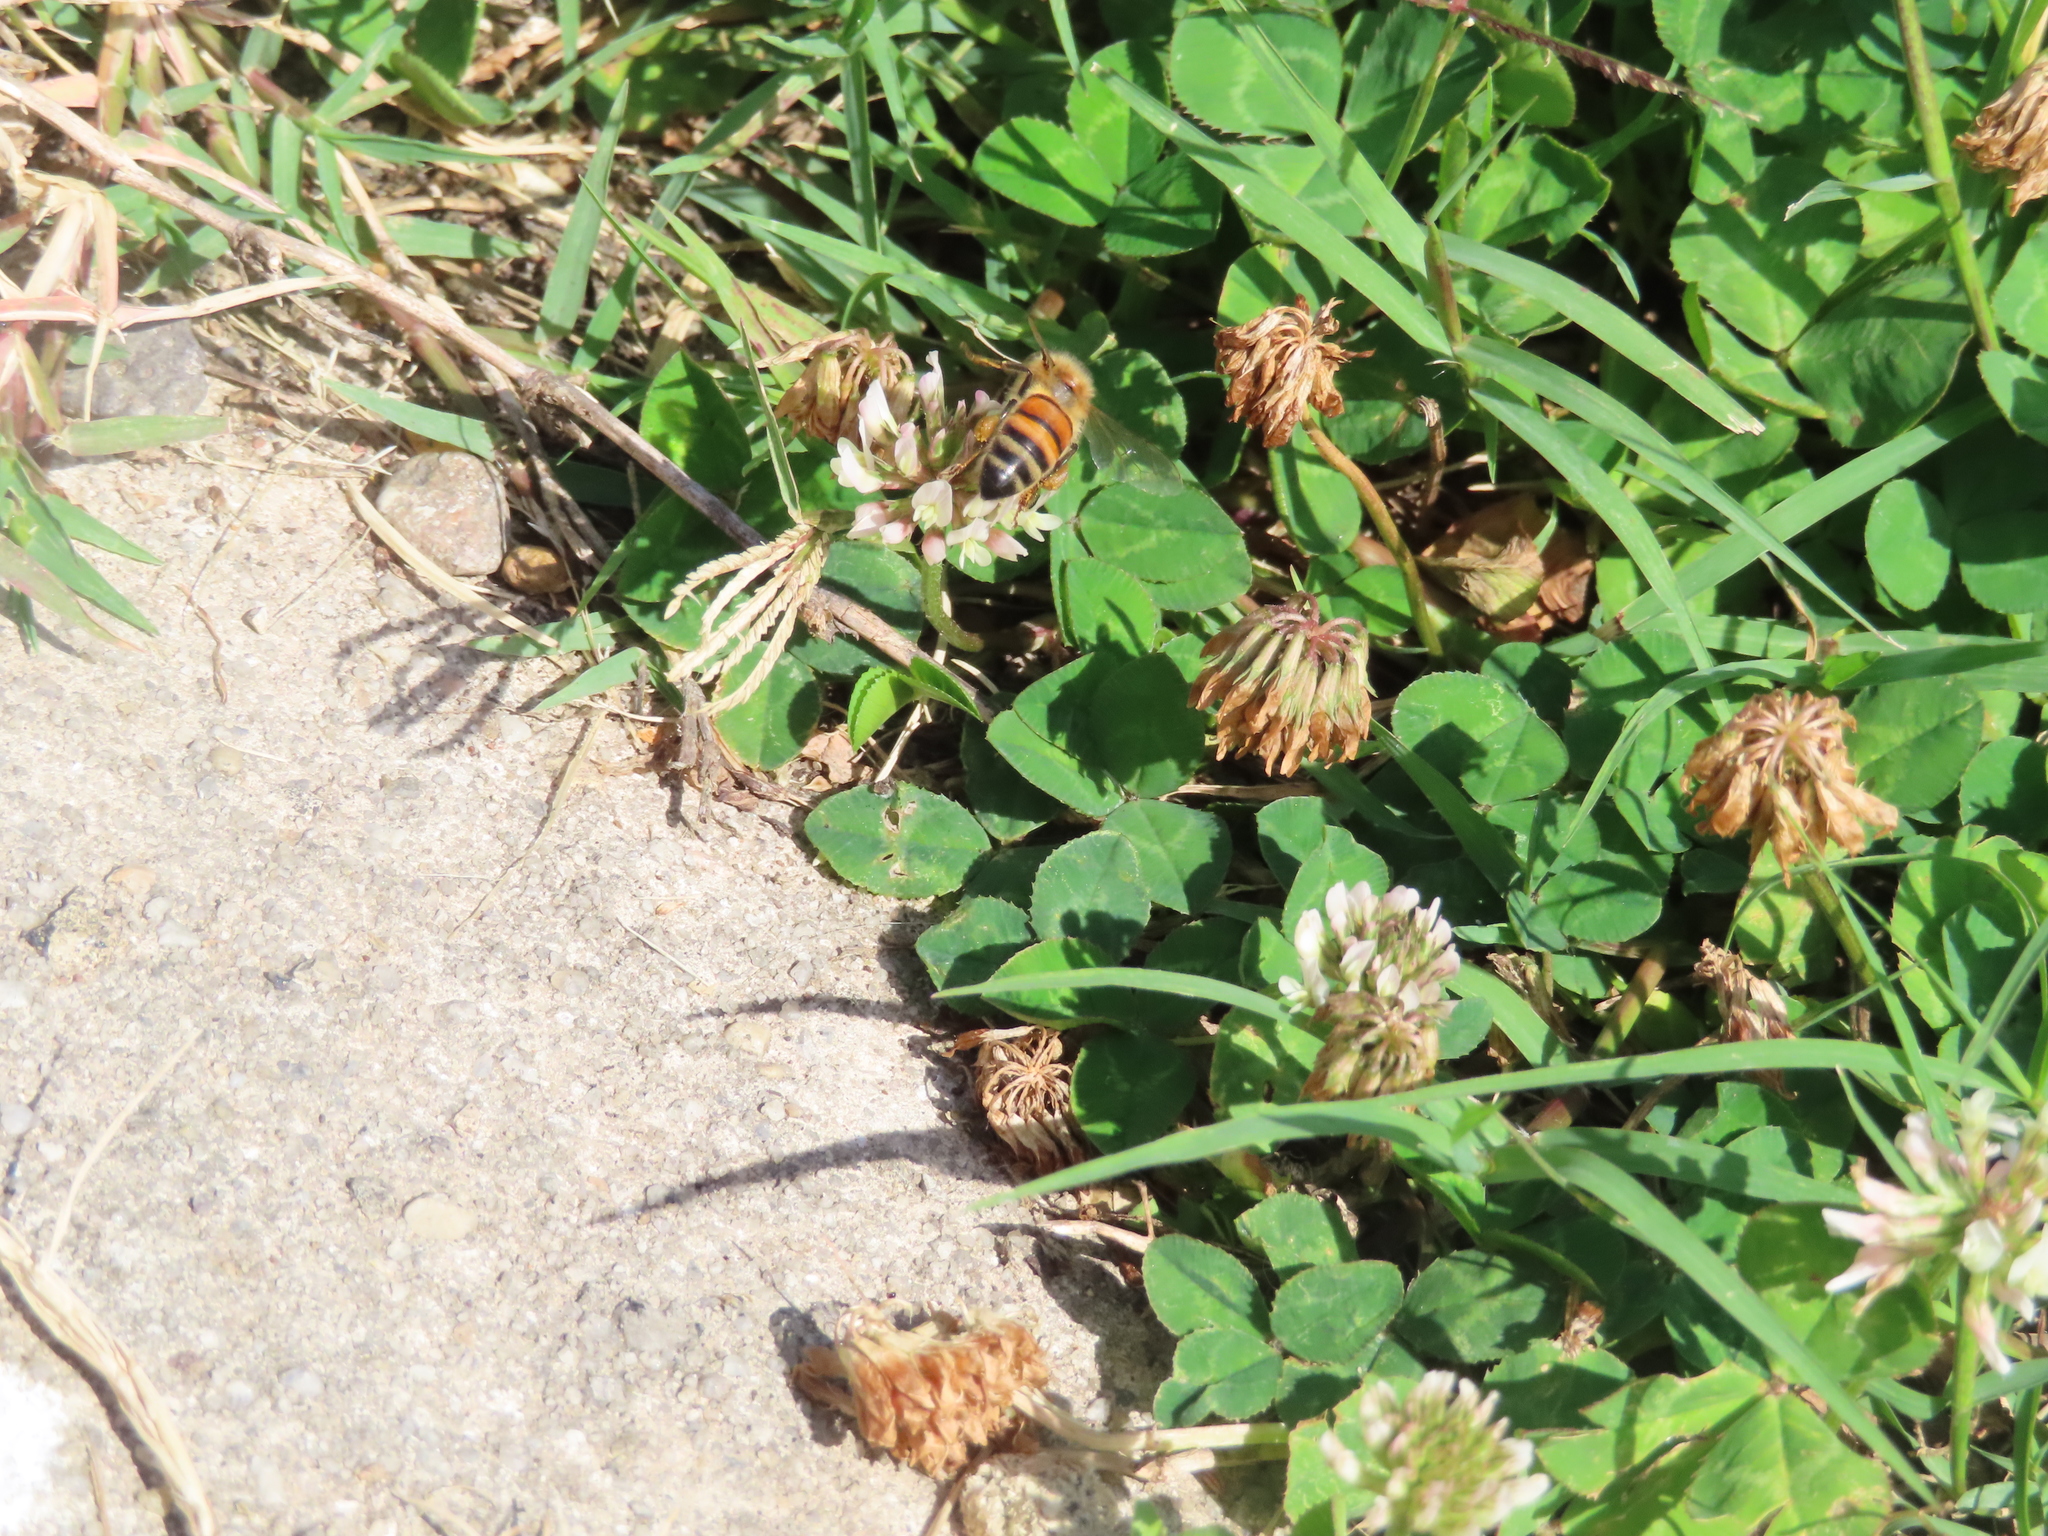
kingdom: Animalia
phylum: Arthropoda
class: Insecta
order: Hymenoptera
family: Apidae
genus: Apis
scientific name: Apis mellifera
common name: Honey bee
